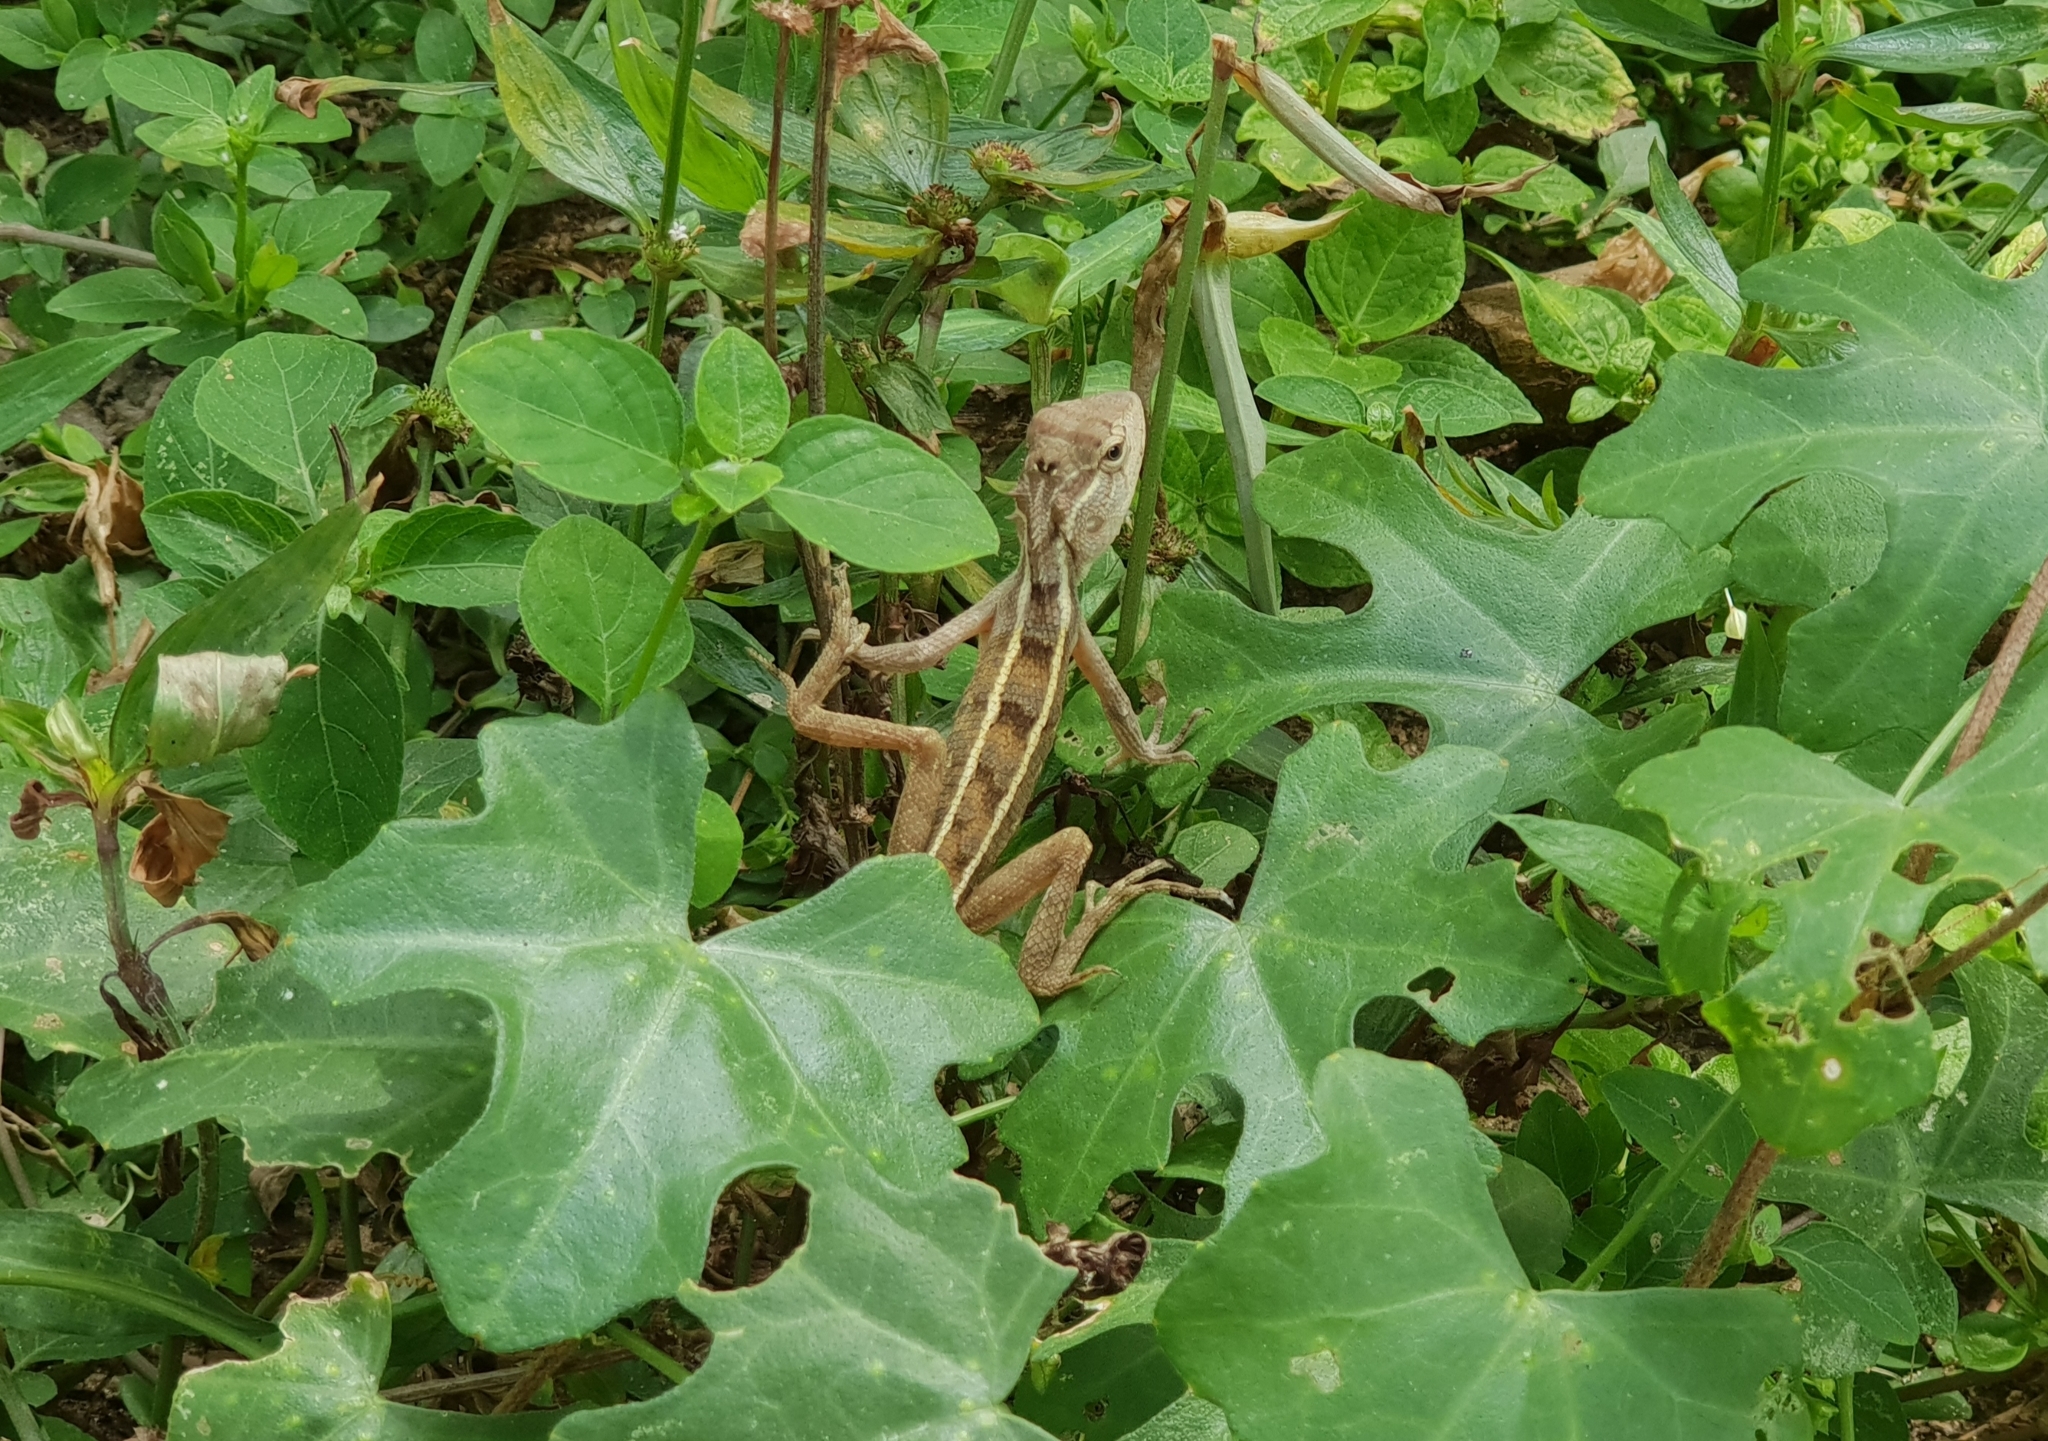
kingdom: Animalia
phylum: Chordata
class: Squamata
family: Agamidae
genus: Calotes
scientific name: Calotes versicolor
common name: Oriental garden lizard
